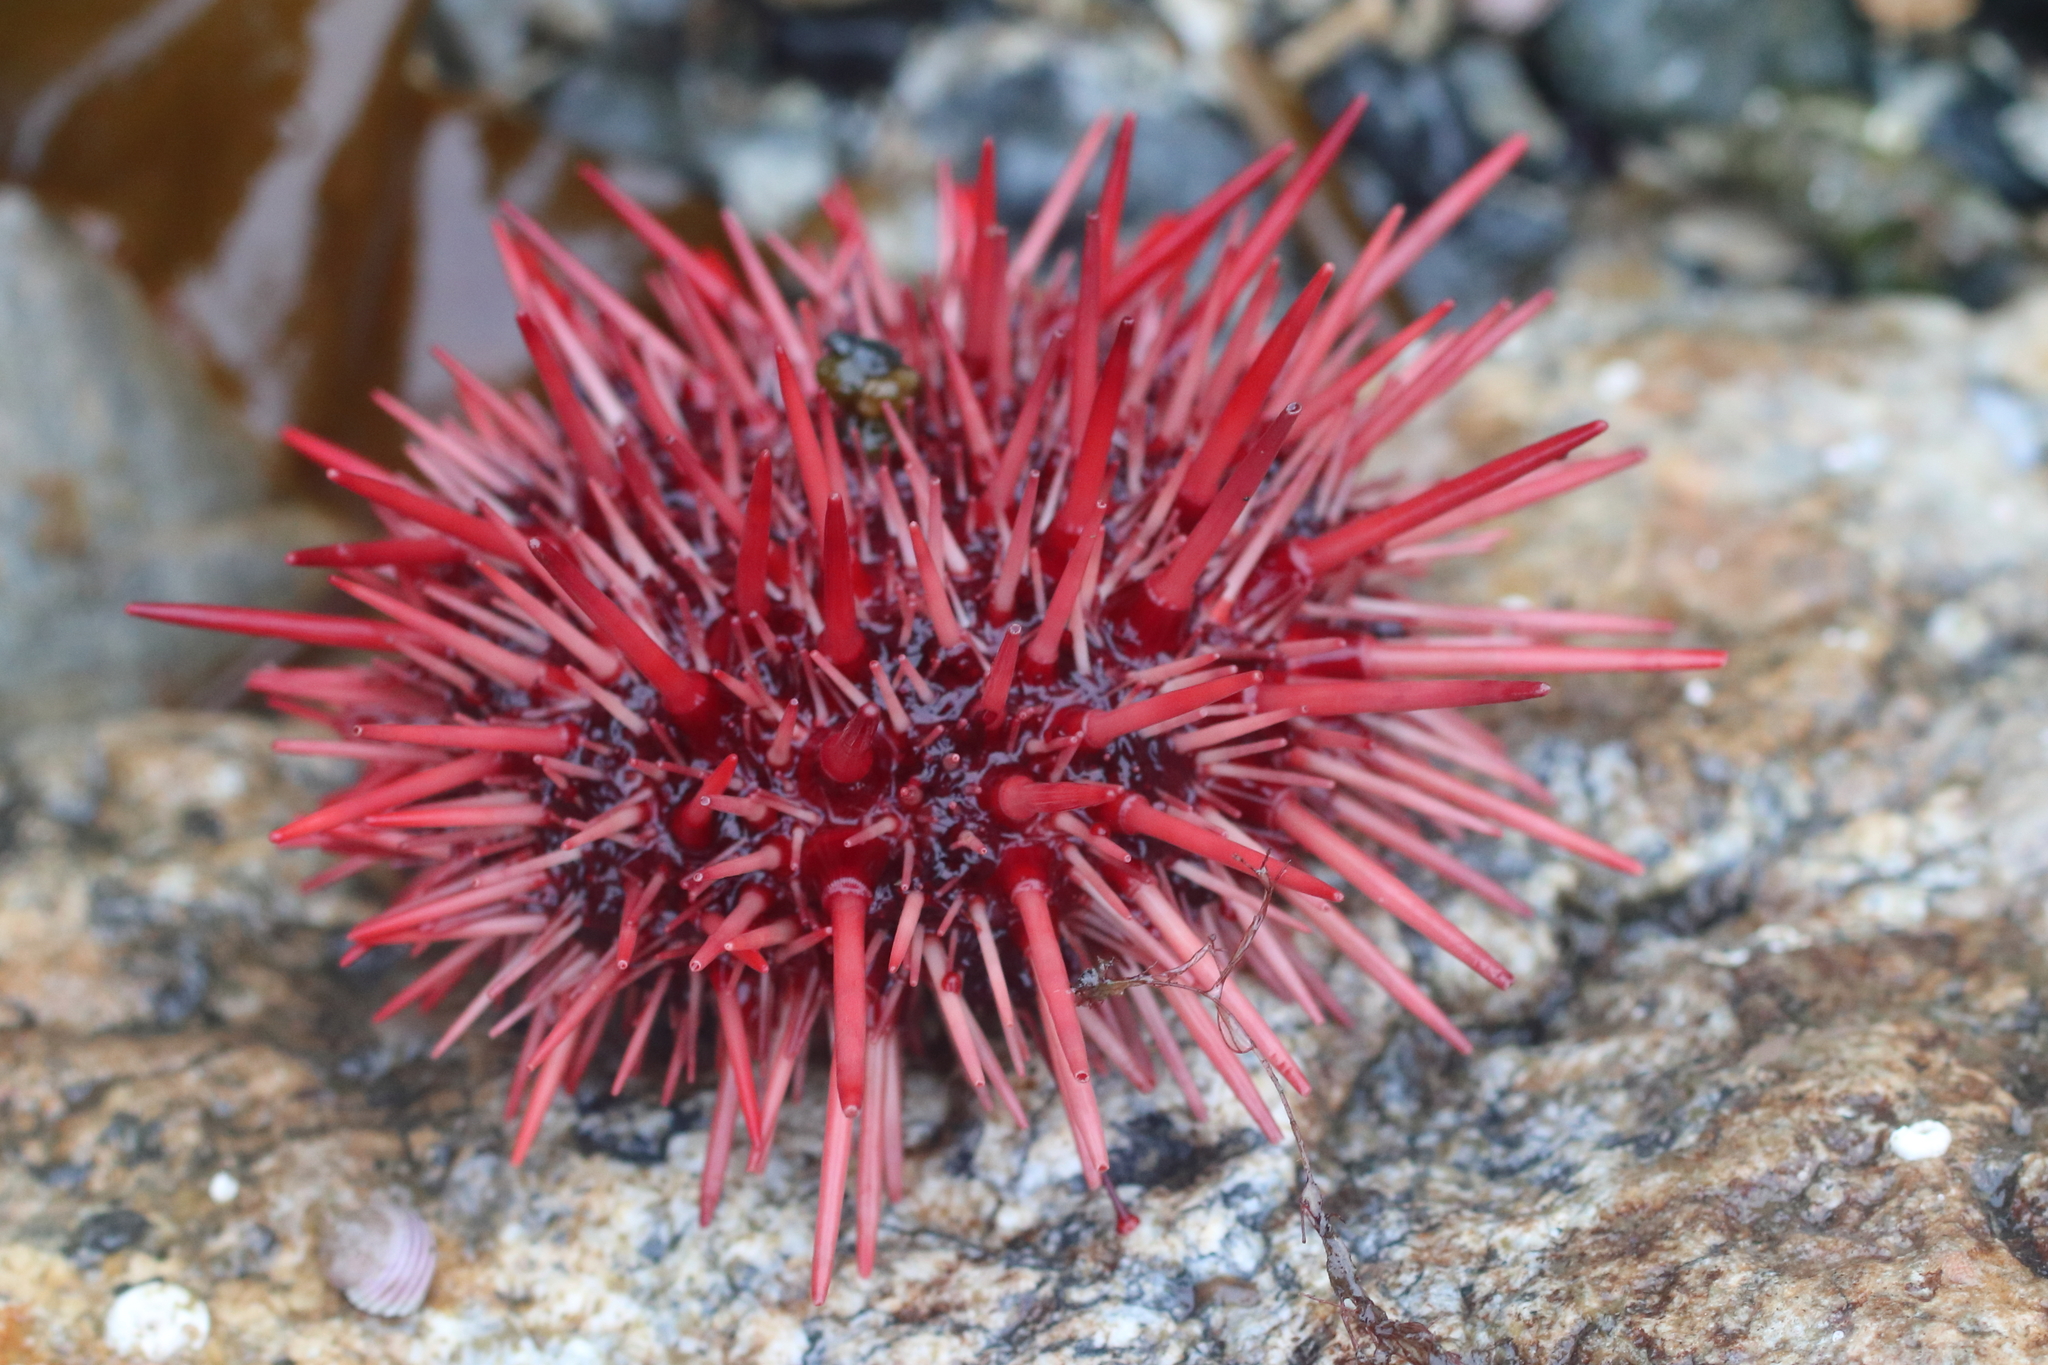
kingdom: Animalia
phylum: Echinodermata
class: Echinoidea
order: Camarodonta
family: Strongylocentrotidae
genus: Mesocentrotus
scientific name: Mesocentrotus franciscanus
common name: Red sea urchin
